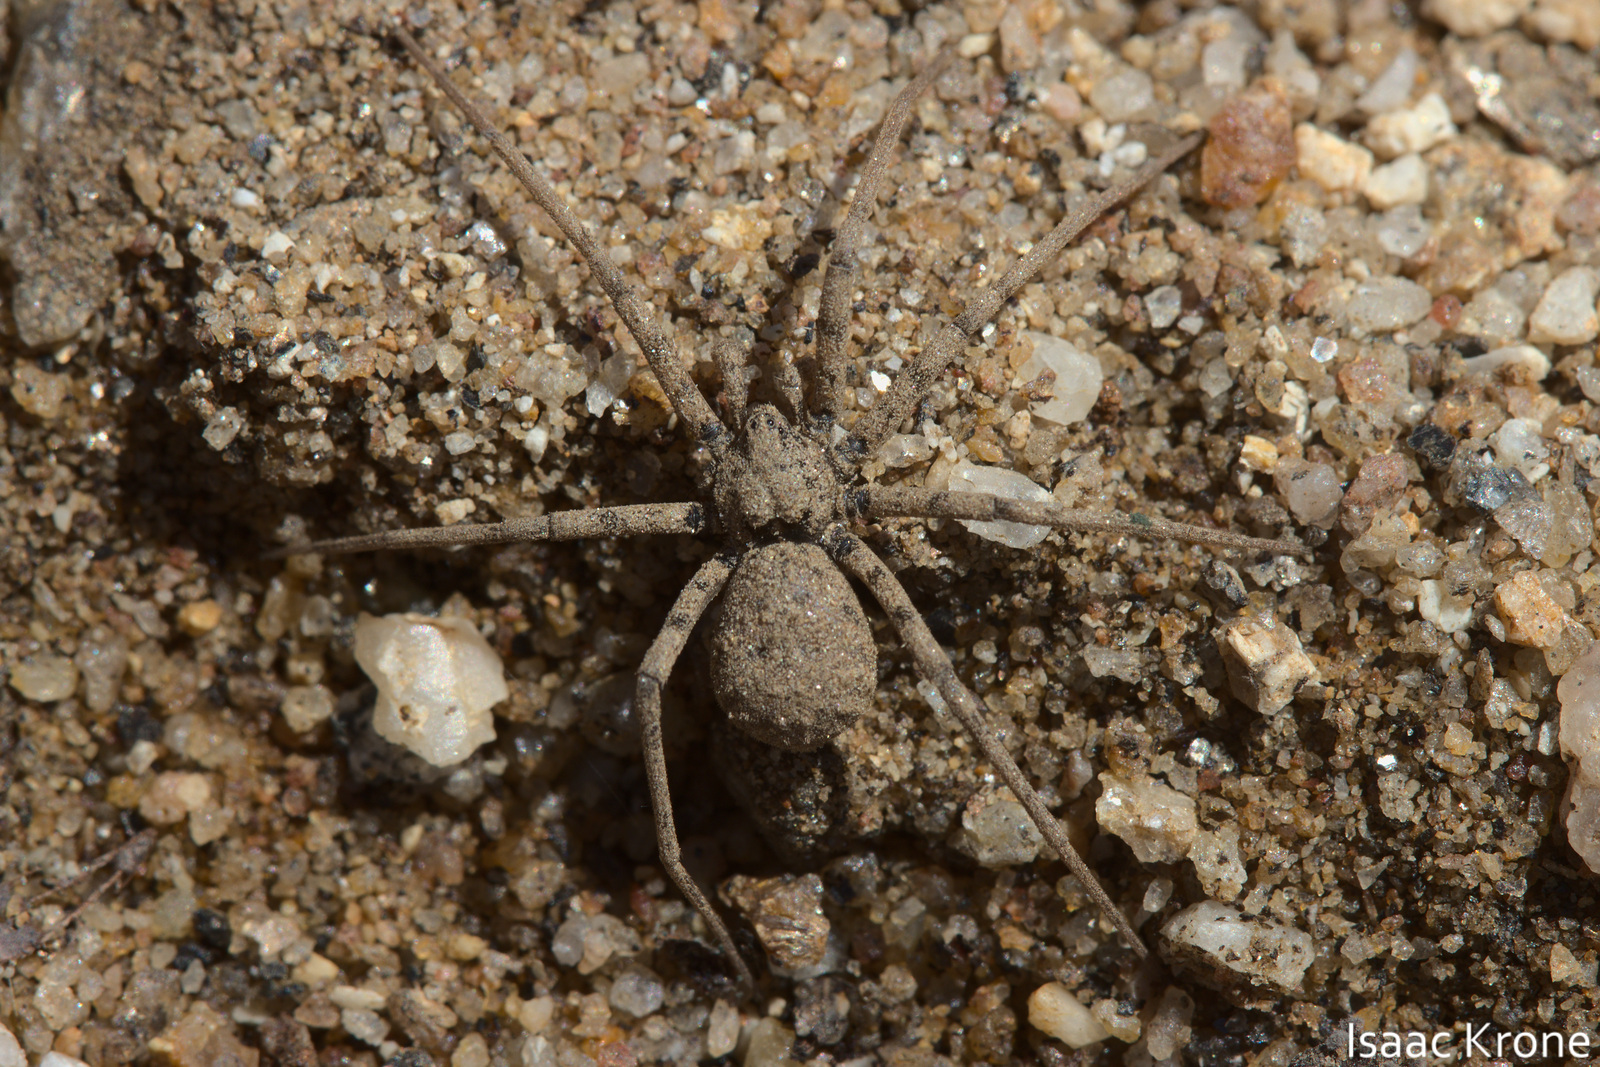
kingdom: Animalia
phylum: Arthropoda
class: Arachnida
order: Araneae
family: Homalonychidae
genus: Homalonychus
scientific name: Homalonychus theologus
